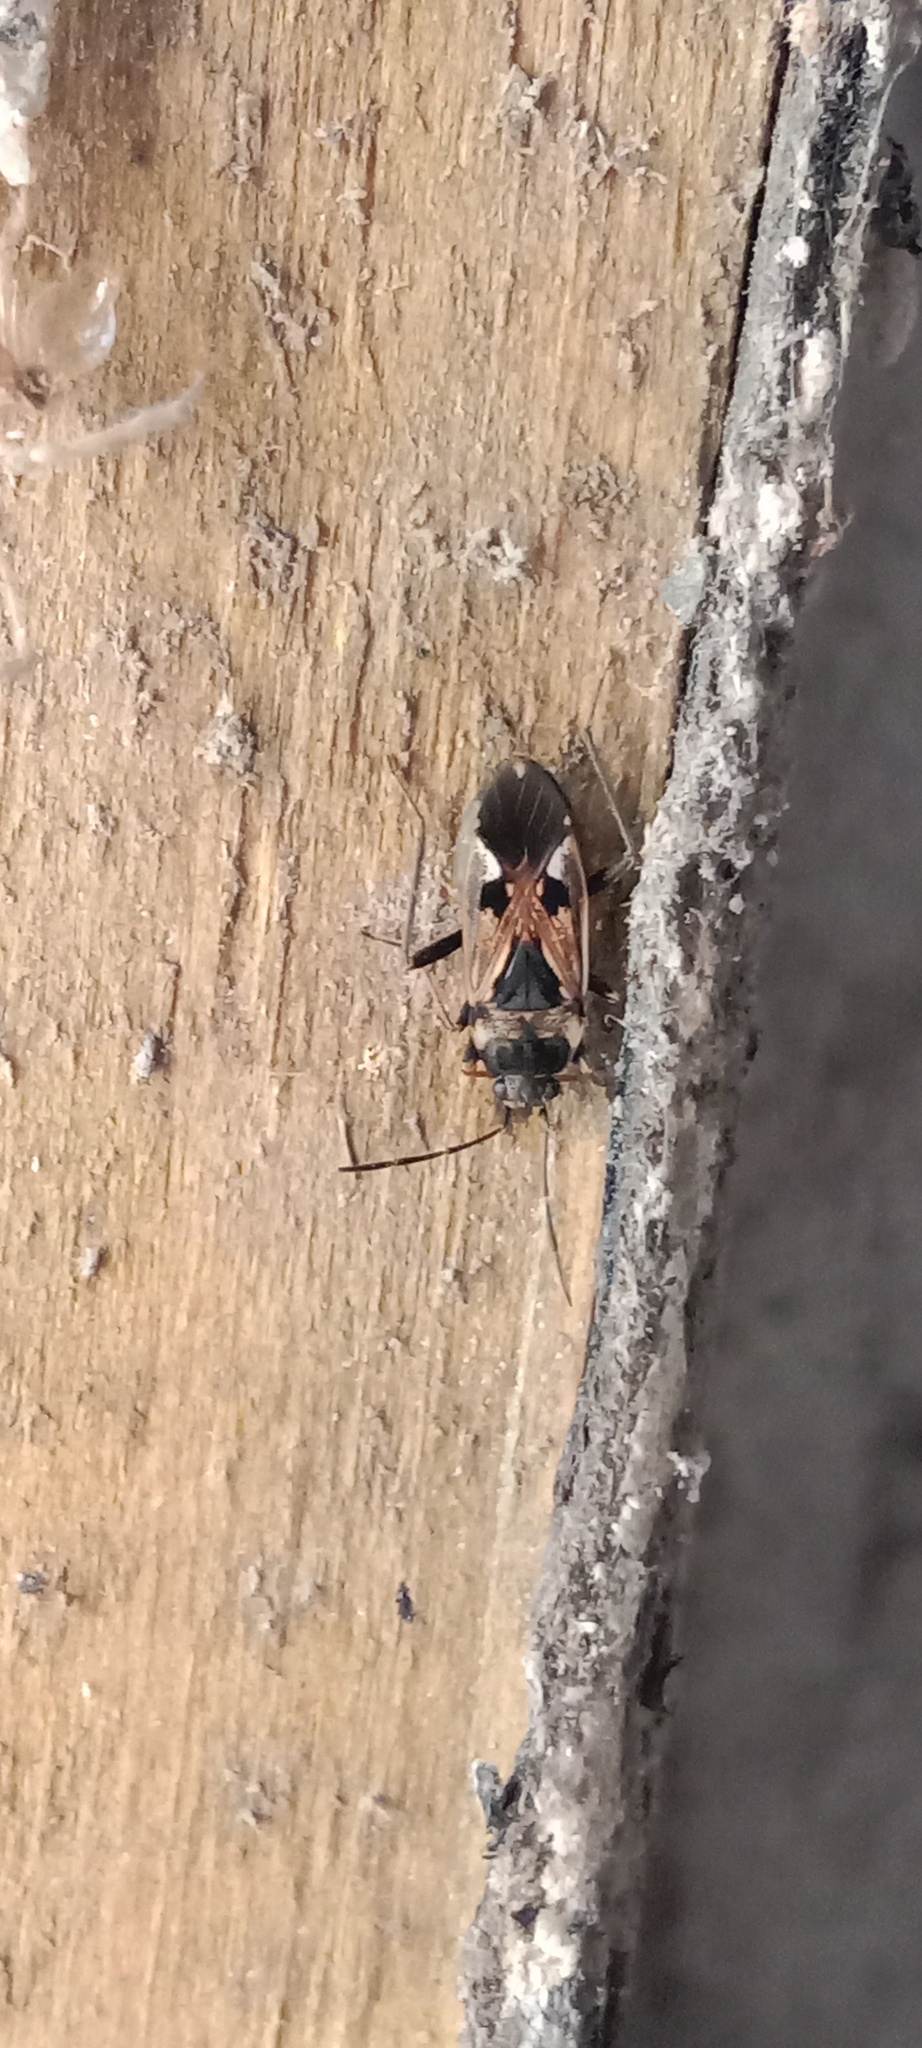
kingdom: Animalia
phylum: Arthropoda
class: Insecta
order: Hemiptera
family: Rhyparochromidae
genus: Rhyparochromus
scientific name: Rhyparochromus vulgaris
